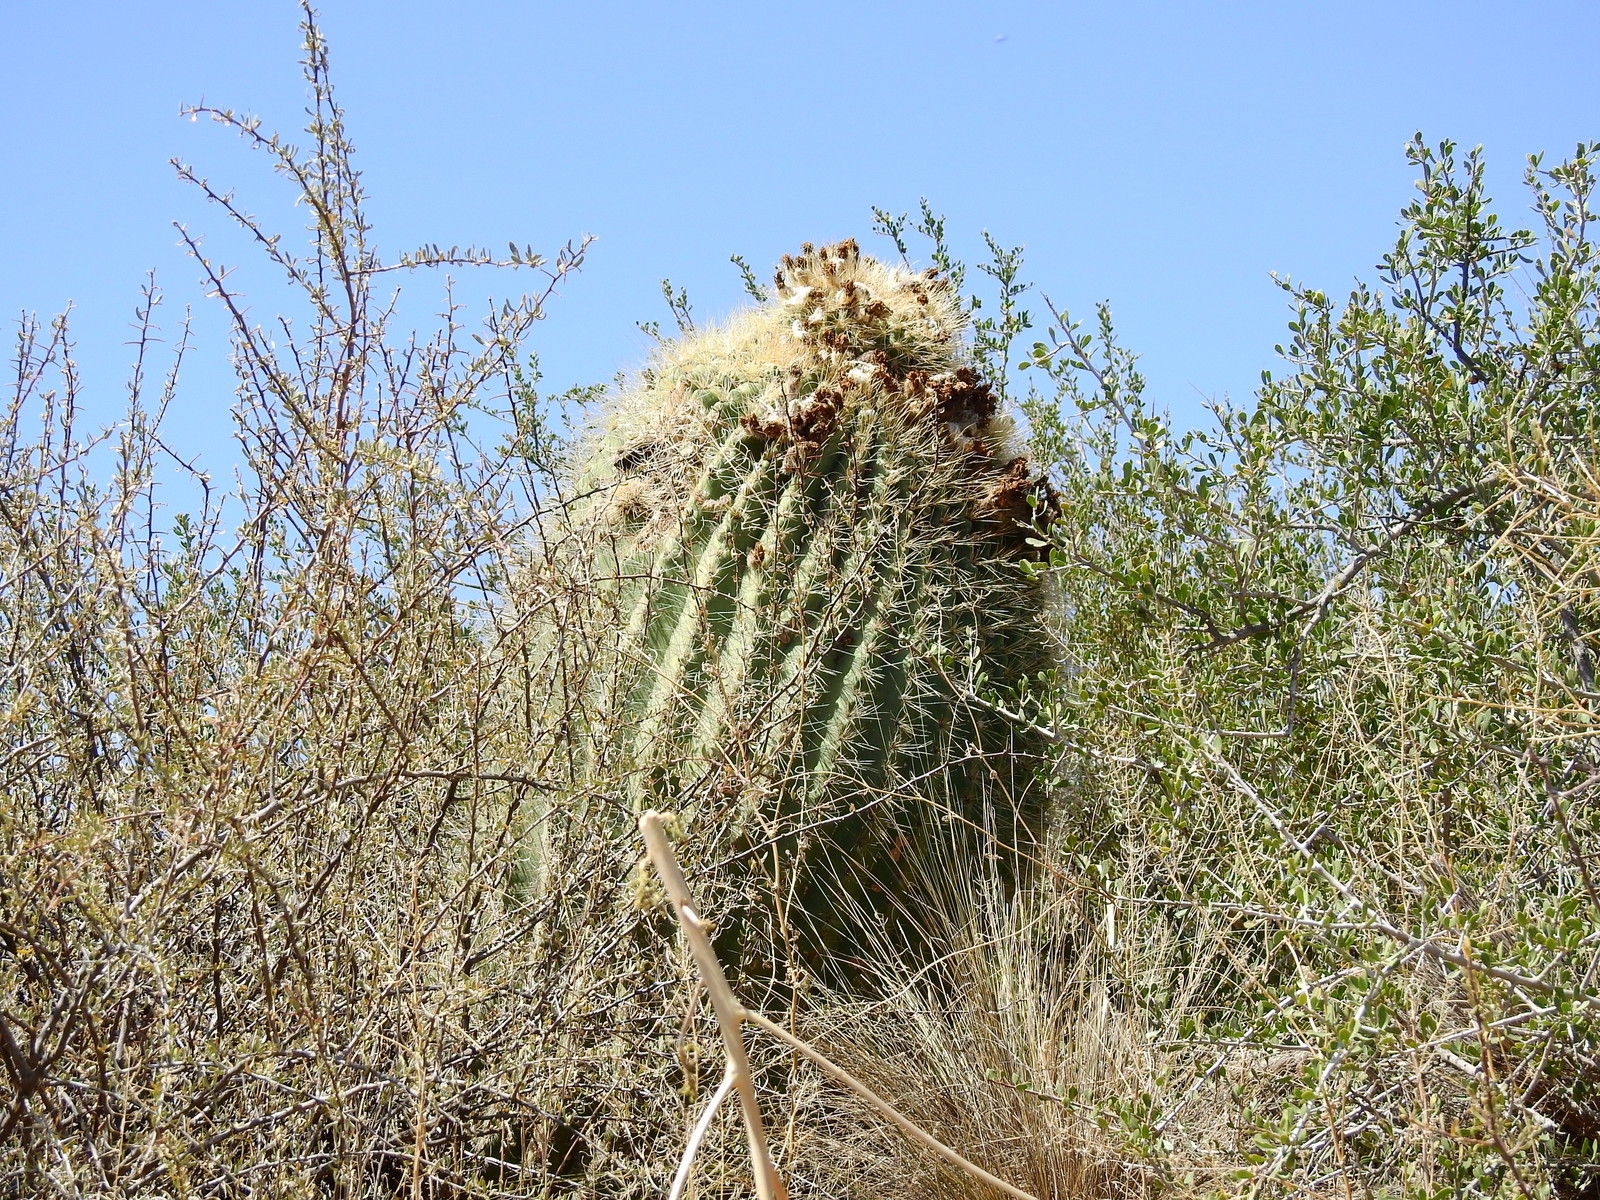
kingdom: Plantae
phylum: Tracheophyta
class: Magnoliopsida
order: Caryophyllales
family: Cactaceae
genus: Soehrensia
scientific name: Soehrensia formosa
